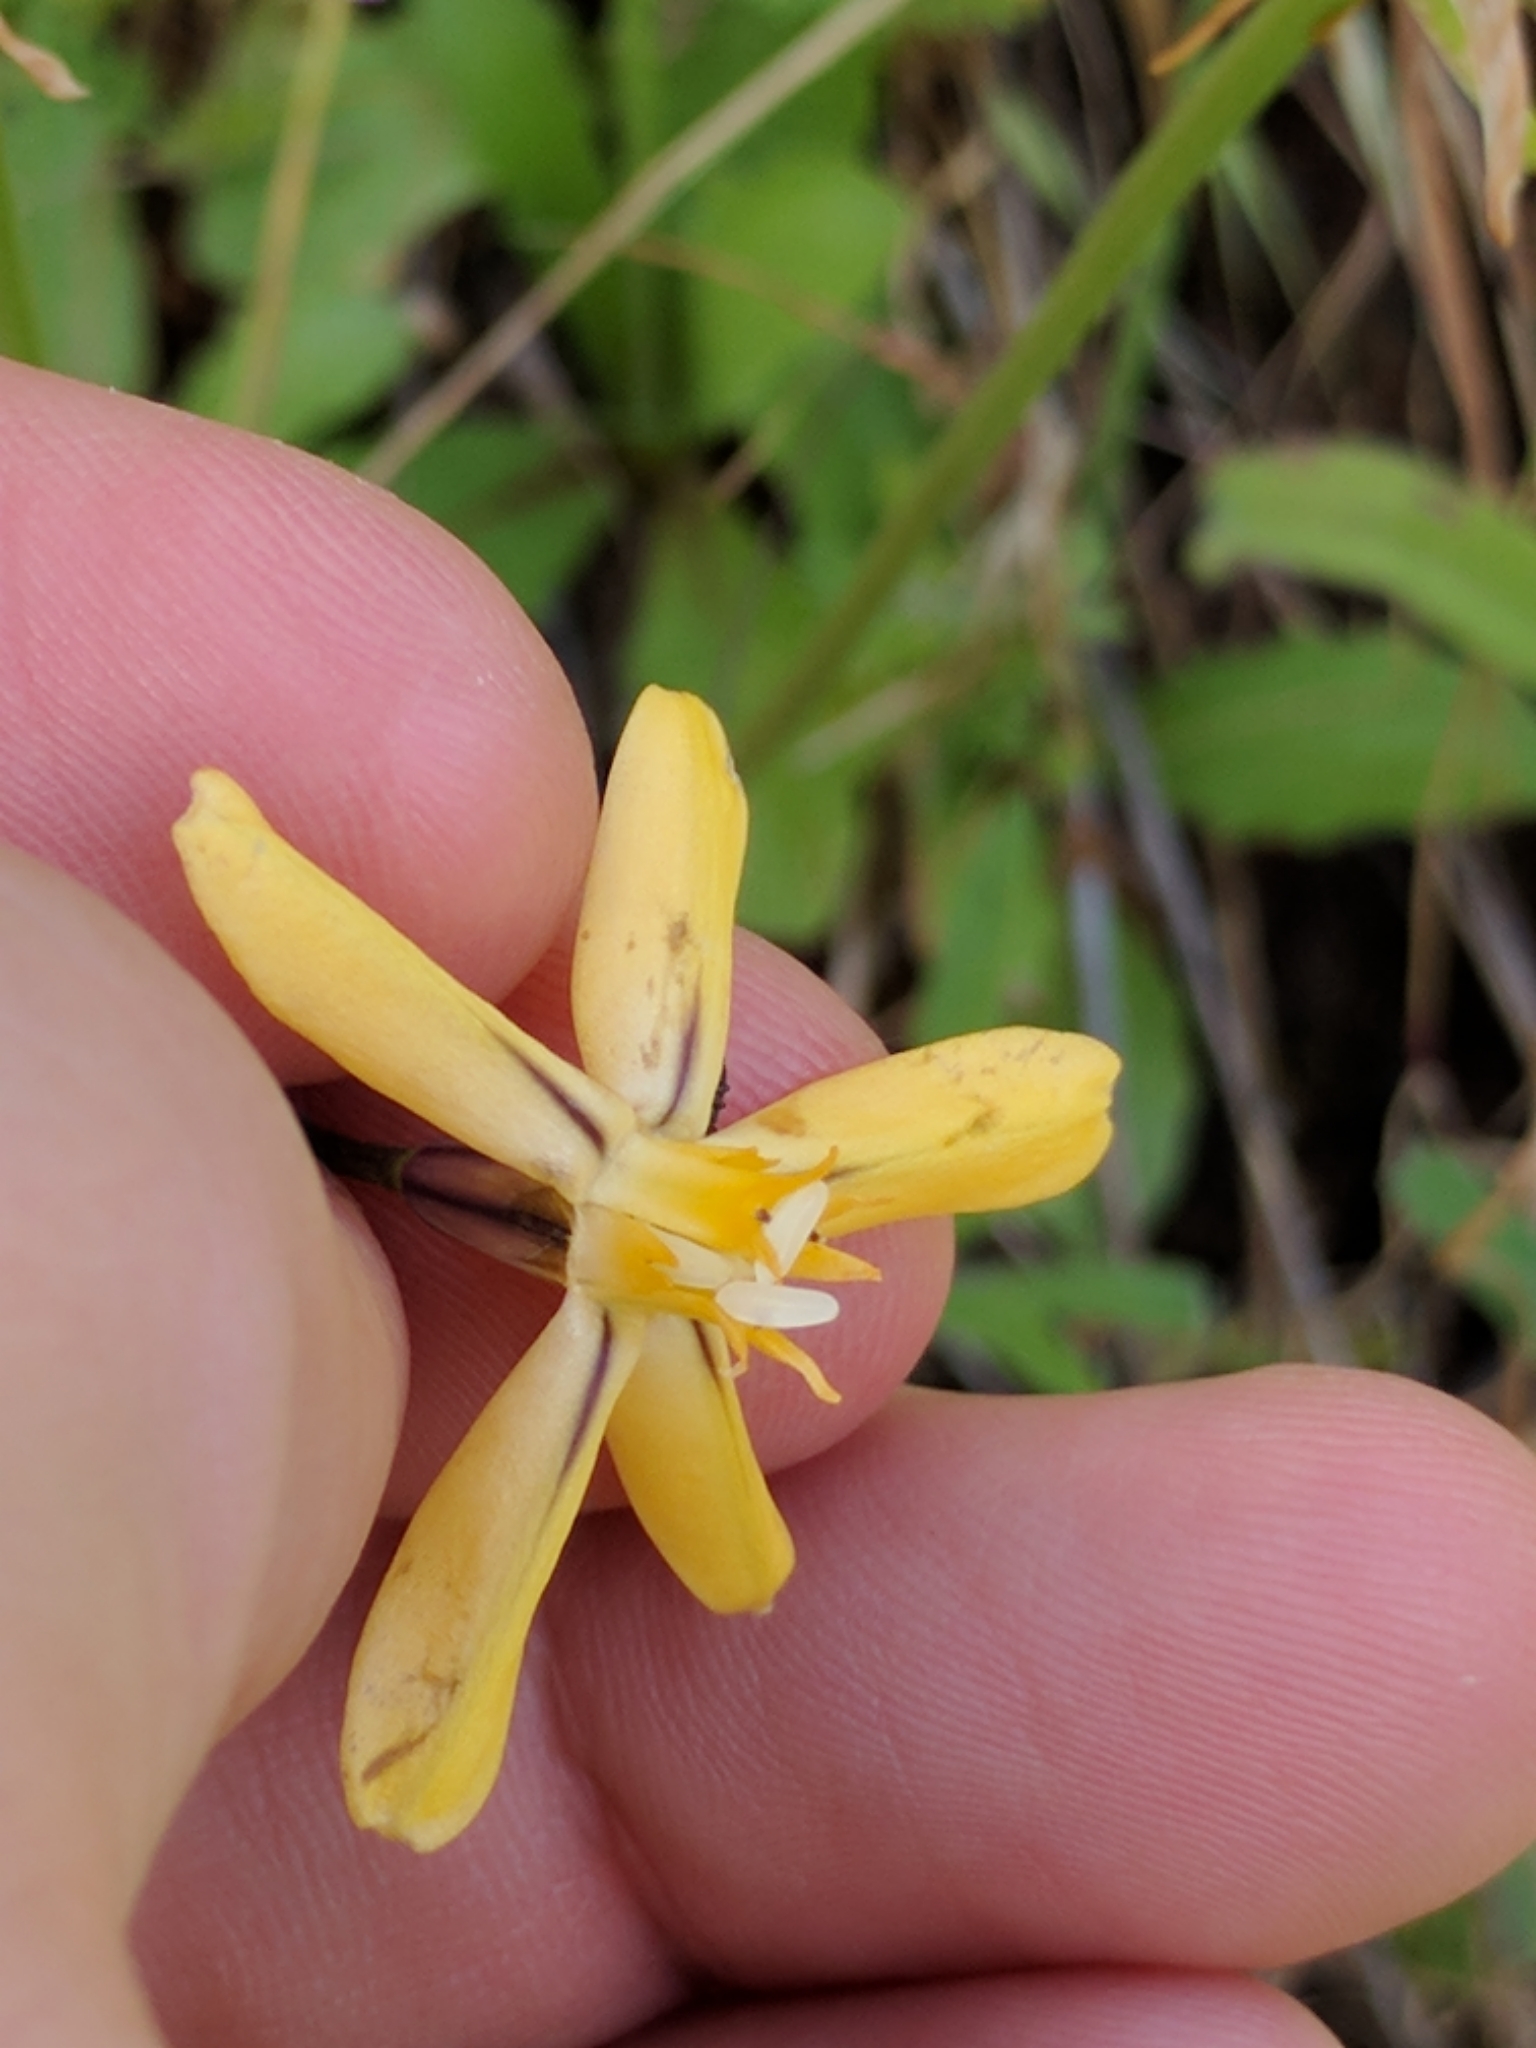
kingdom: Plantae
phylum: Tracheophyta
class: Liliopsida
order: Asparagales
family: Asparagaceae
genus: Triteleia
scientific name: Triteleia ixioides
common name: Yellow-brodiaea
